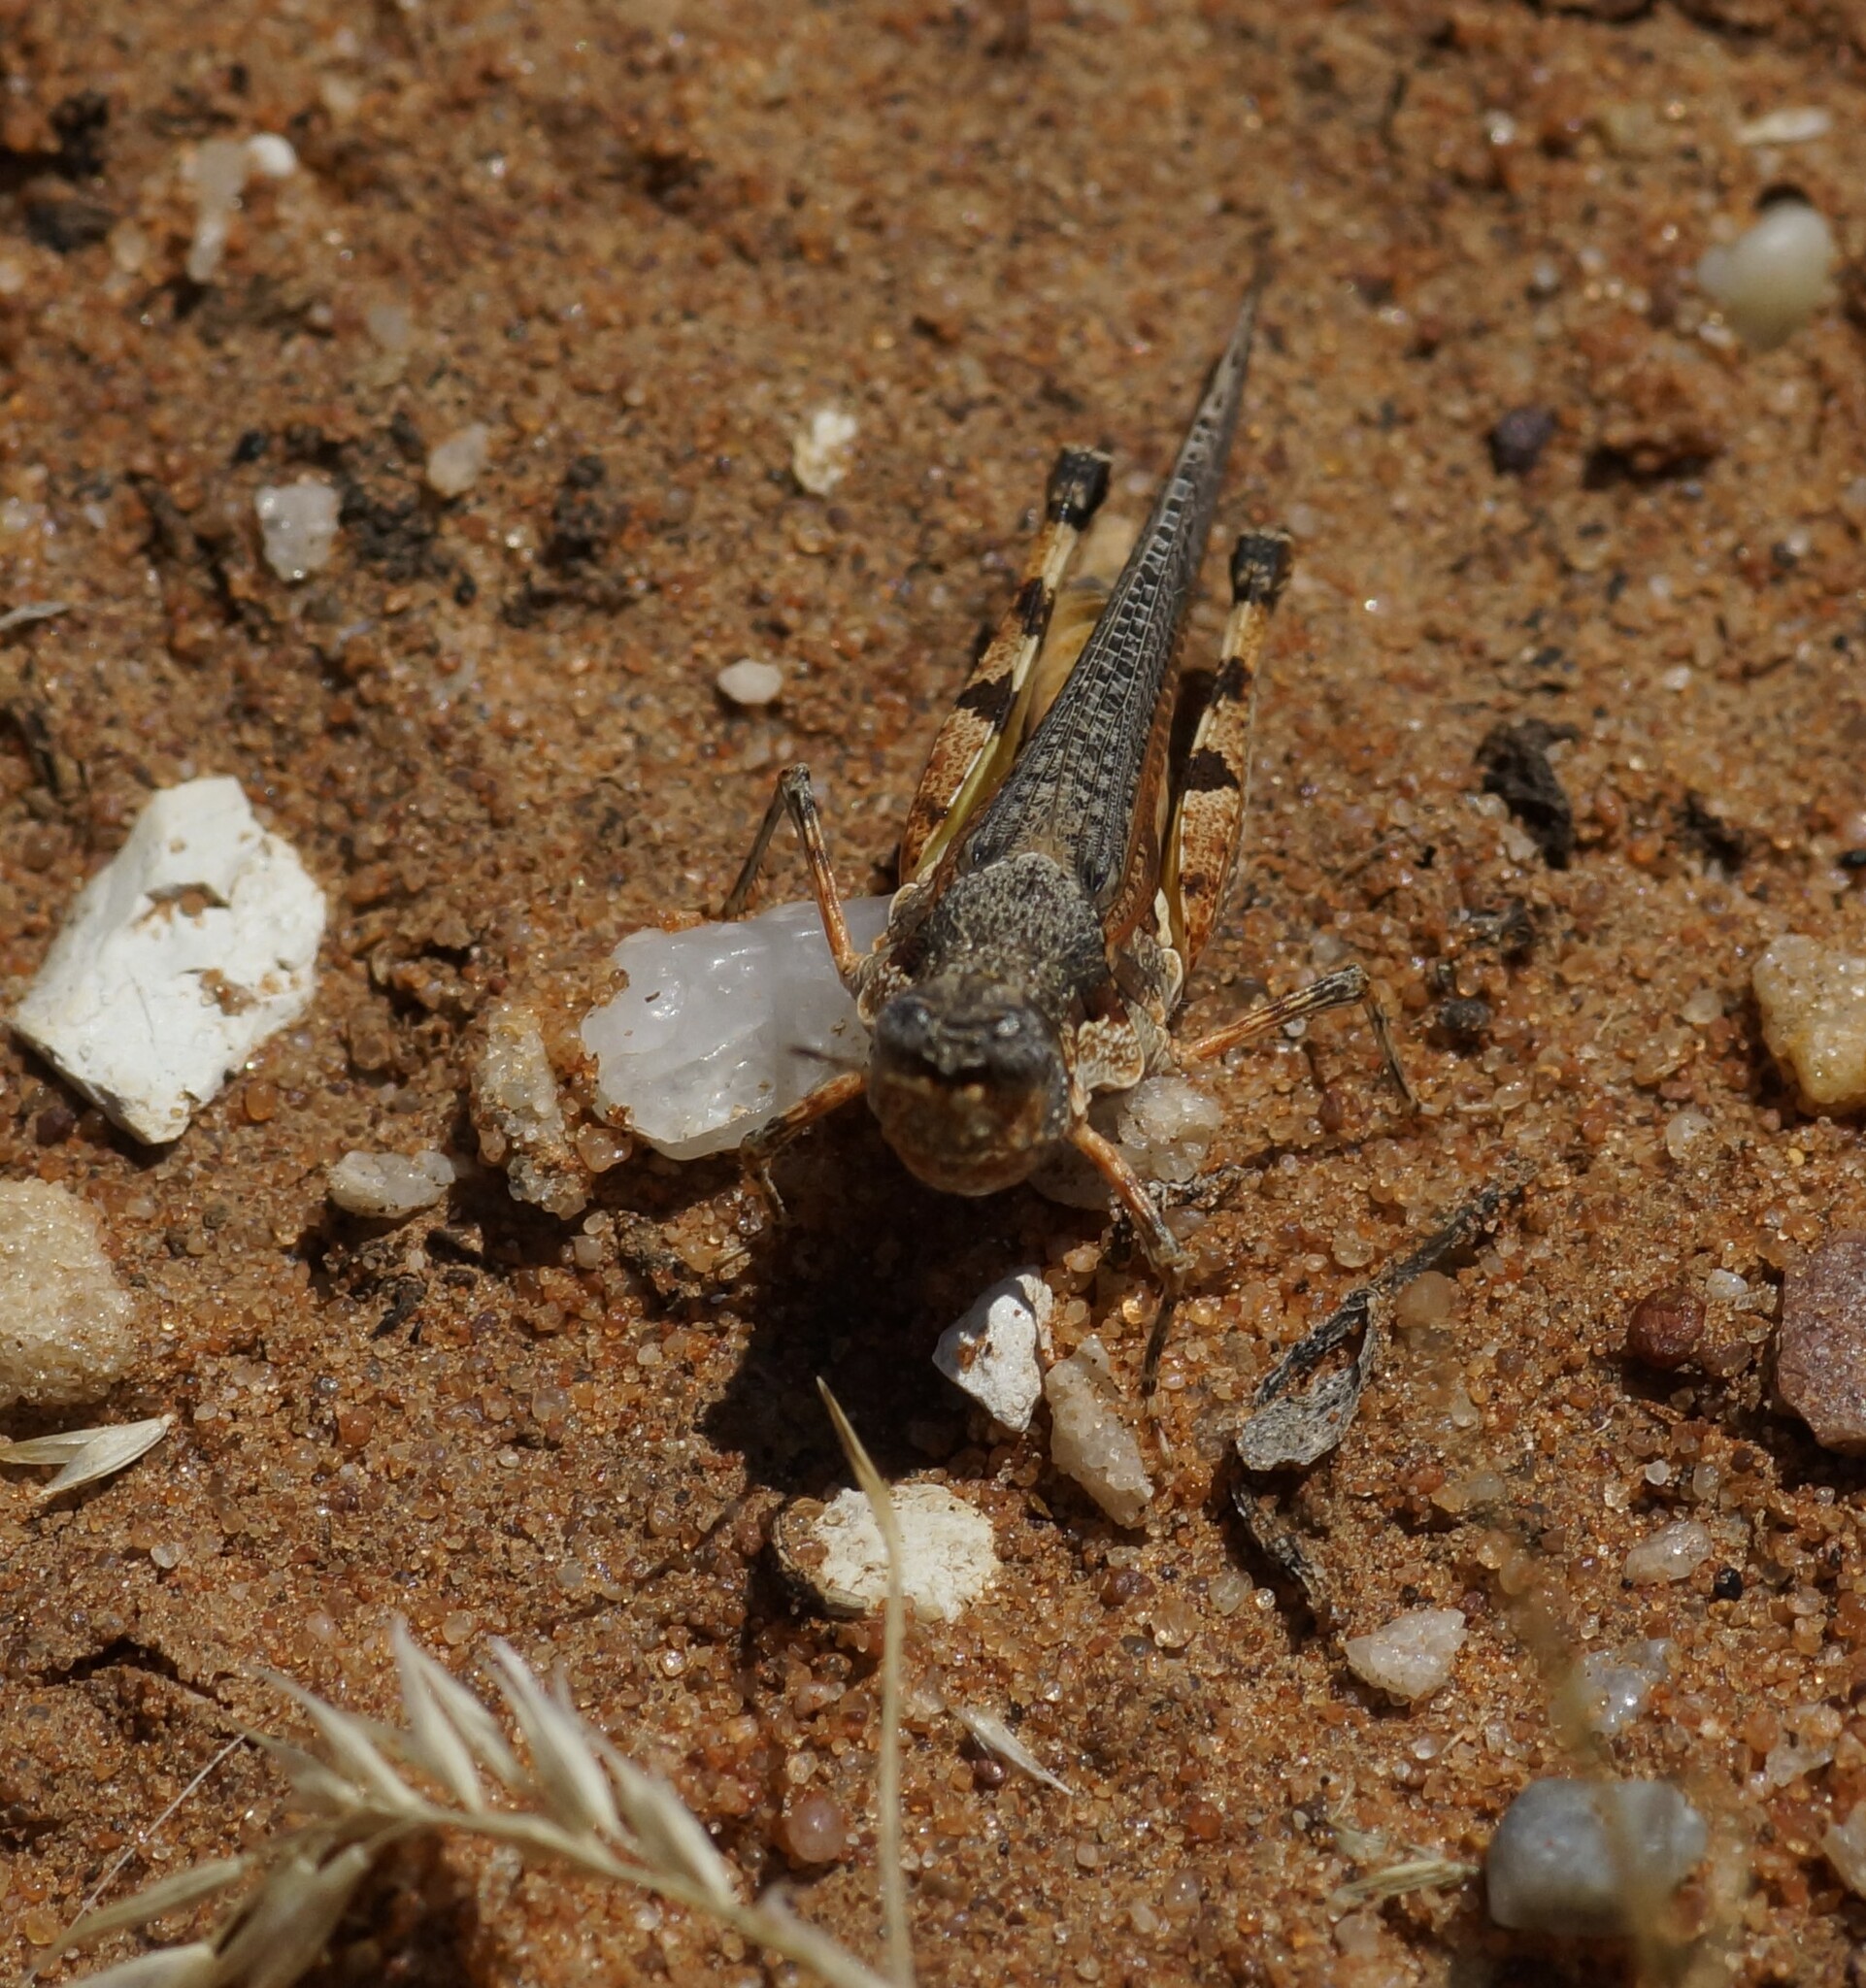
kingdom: Animalia
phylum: Arthropoda
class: Insecta
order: Orthoptera
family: Acrididae
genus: Pycnostictus
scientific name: Pycnostictus seriatus
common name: Common bandwing
